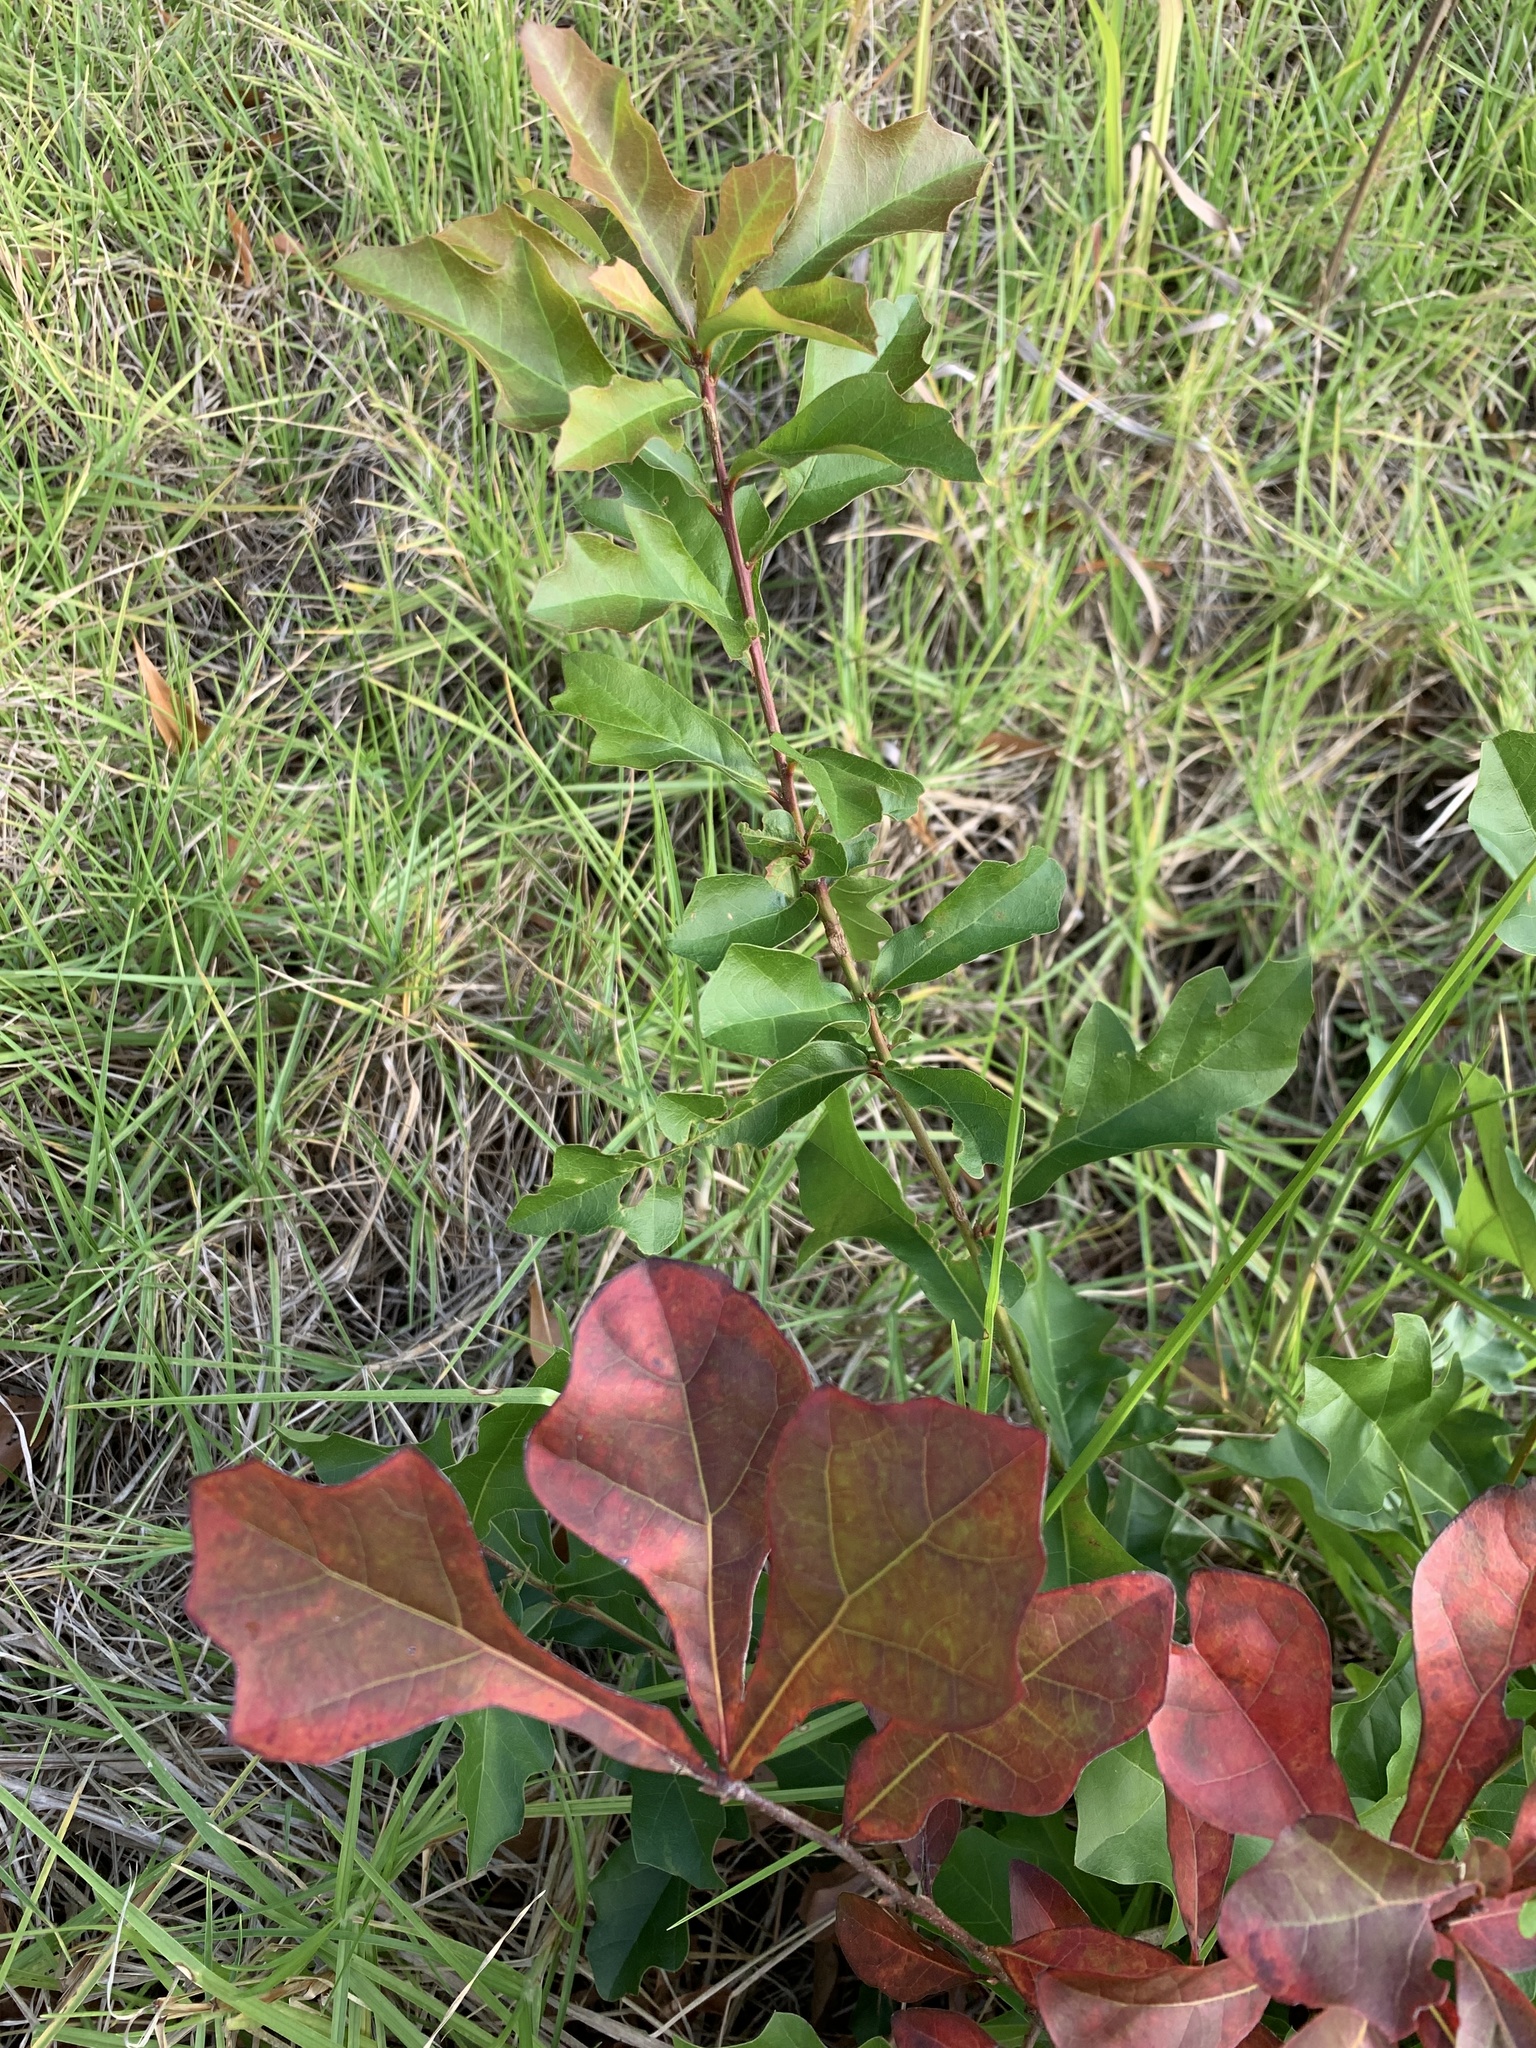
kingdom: Plantae
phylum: Tracheophyta
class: Magnoliopsida
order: Fagales
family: Fagaceae
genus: Quercus
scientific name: Quercus nigra
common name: Water oak
